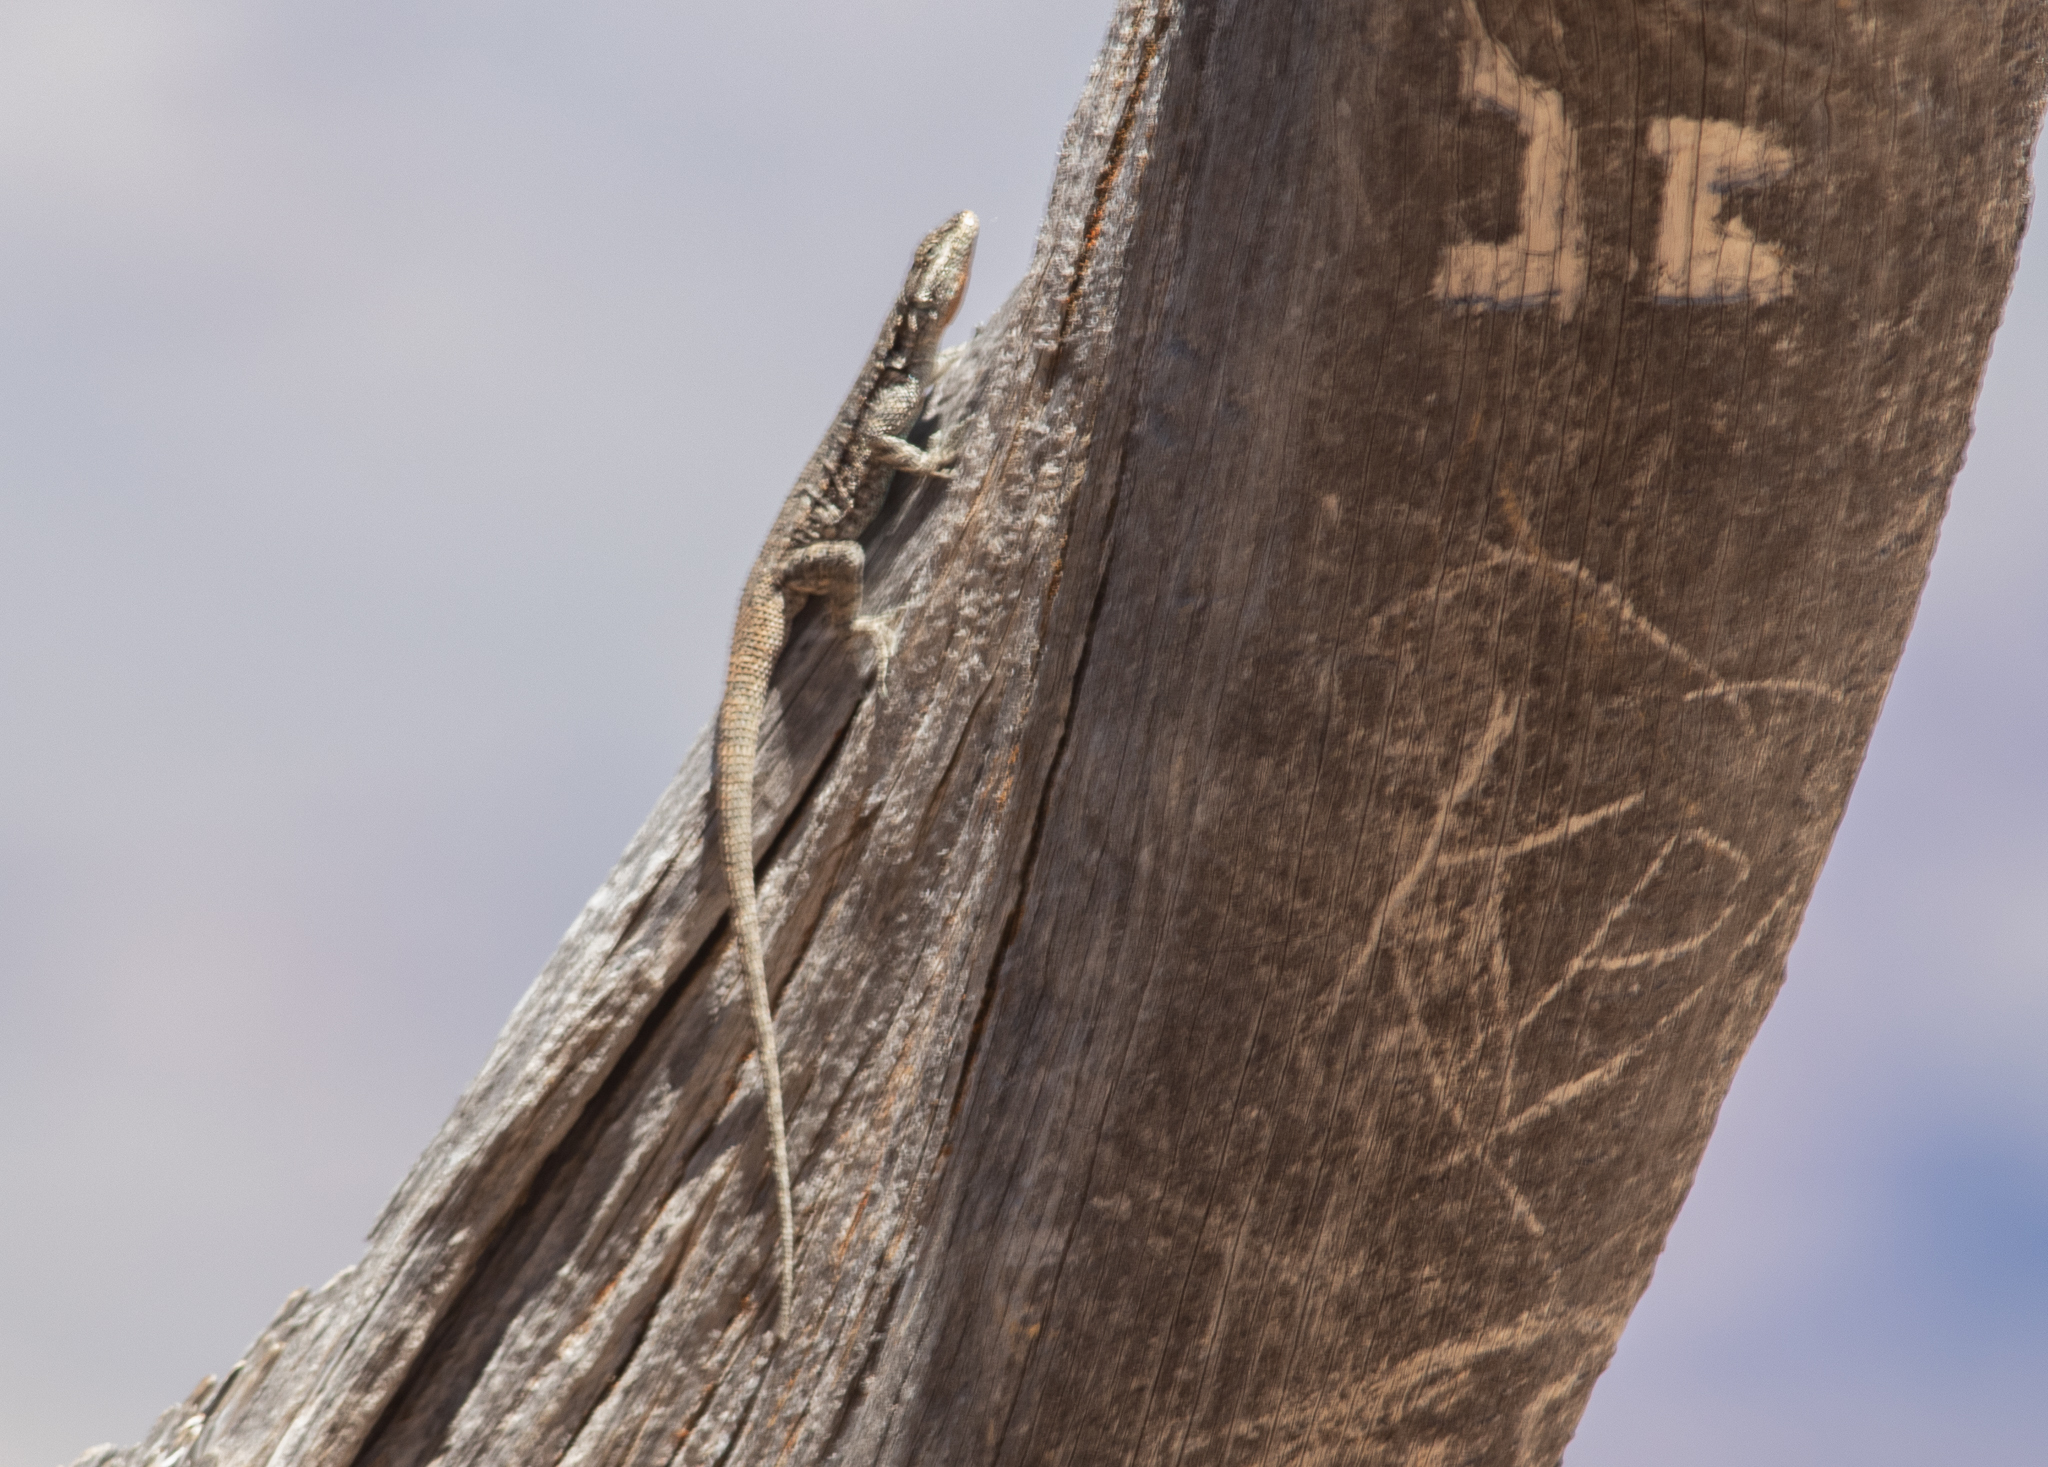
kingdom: Animalia
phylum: Chordata
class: Squamata
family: Phrynosomatidae
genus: Urosaurus
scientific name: Urosaurus ornatus
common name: Ornate tree lizard
